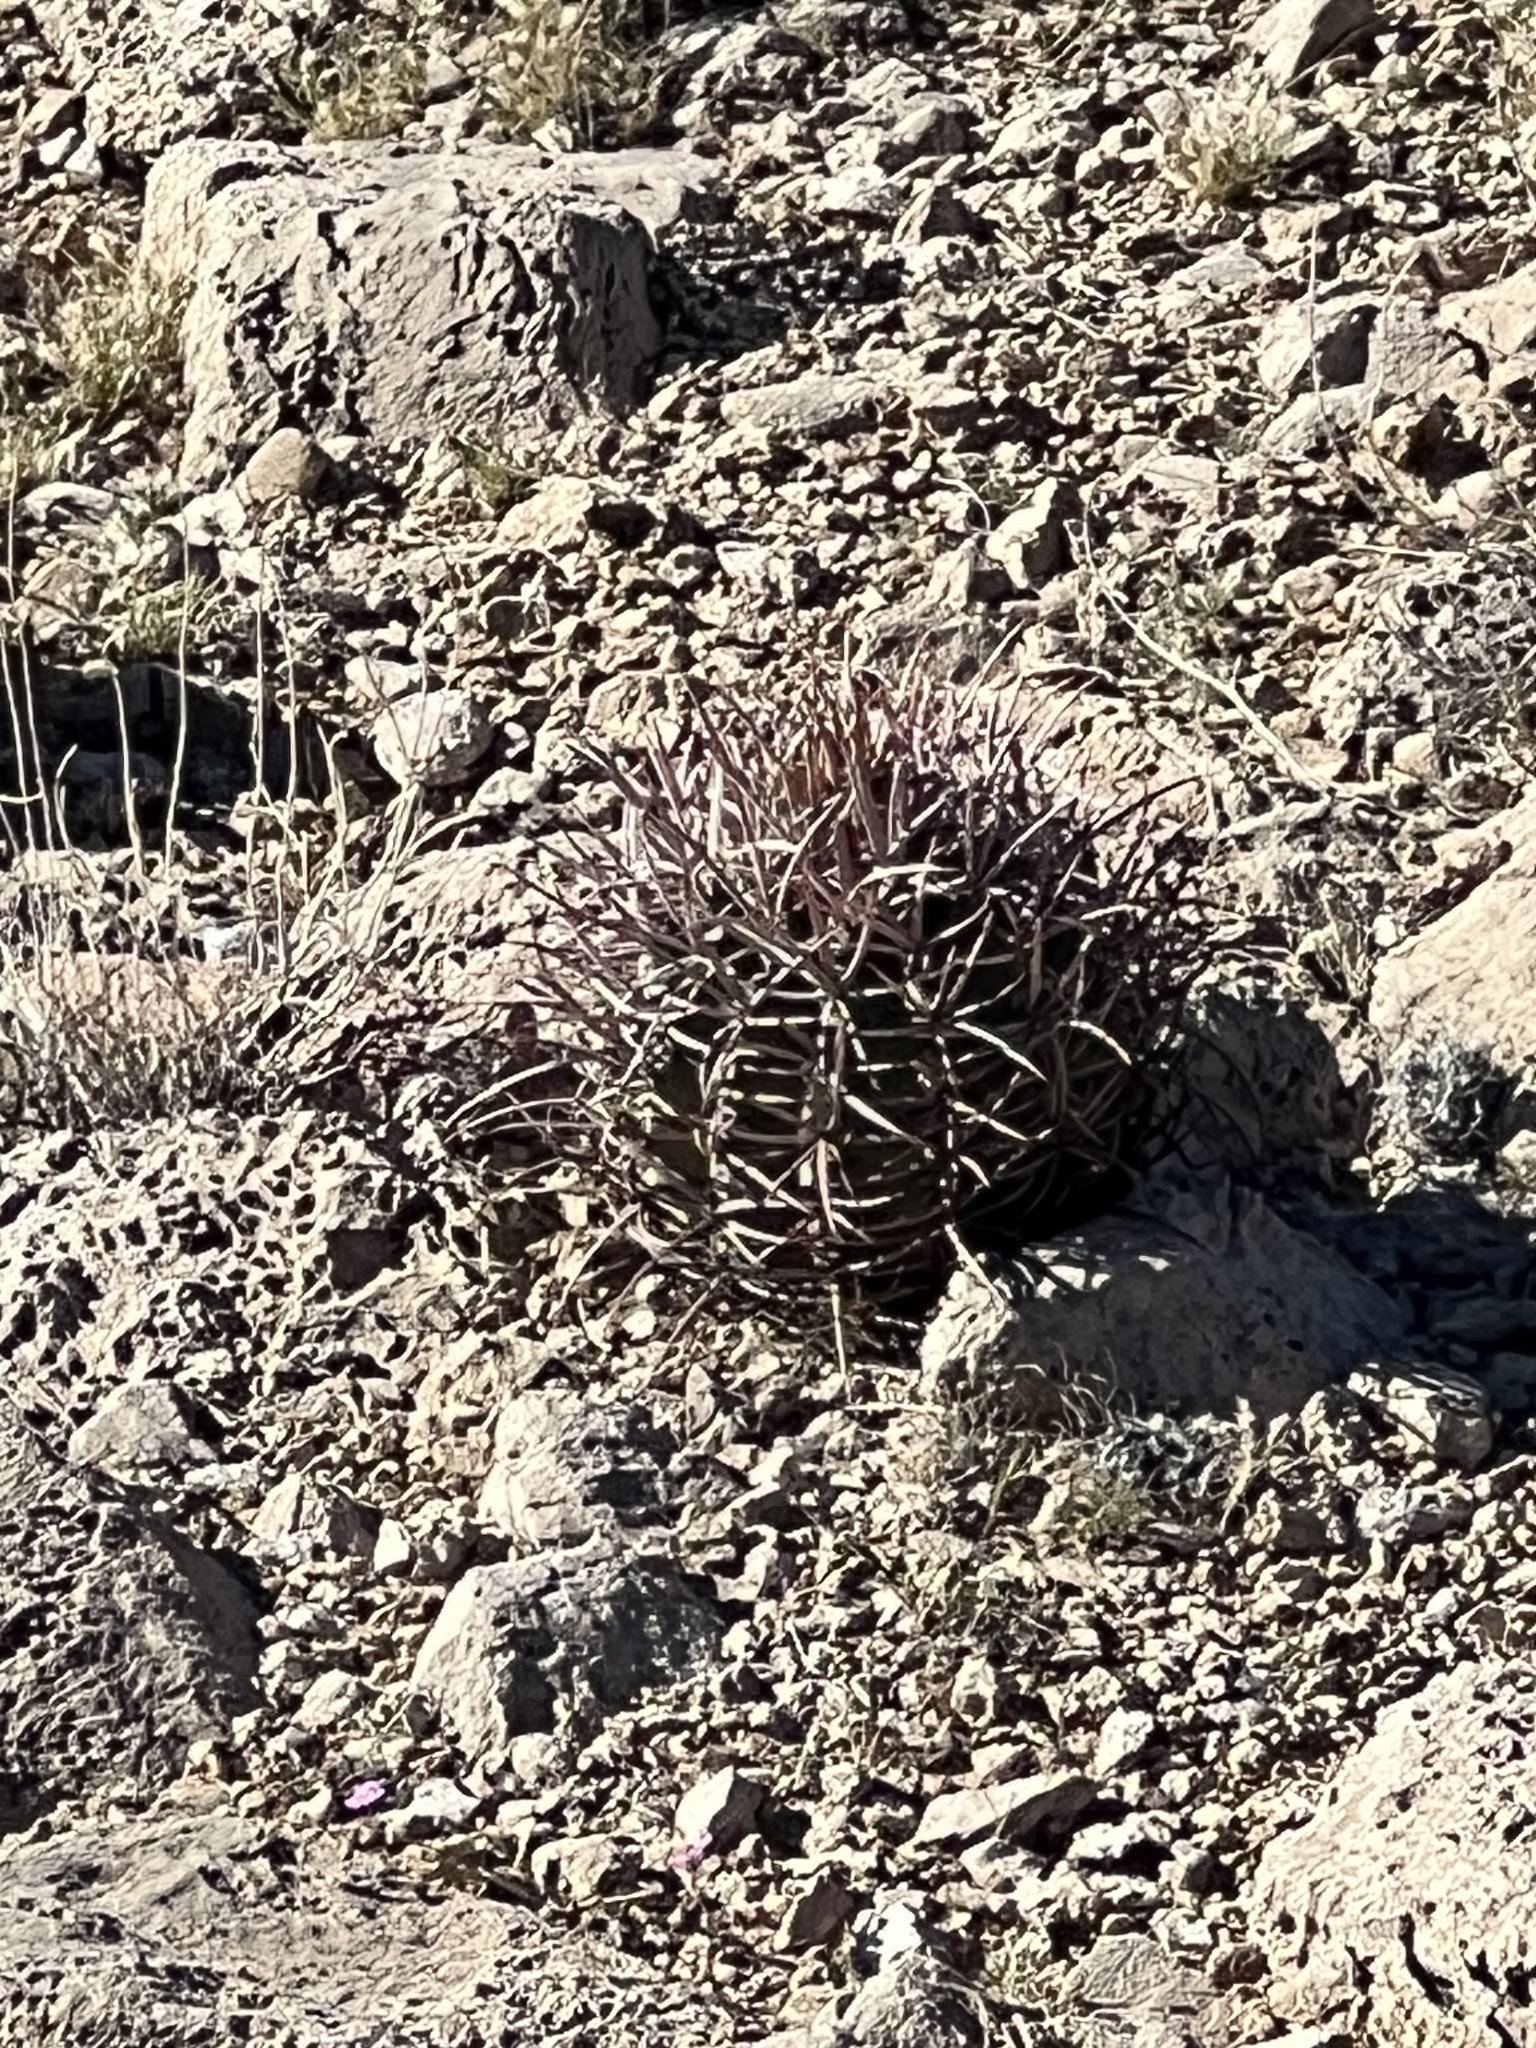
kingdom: Plantae
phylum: Tracheophyta
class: Magnoliopsida
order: Caryophyllales
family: Cactaceae
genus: Echinocactus
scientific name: Echinocactus polycephalus
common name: Cottontop cactus
